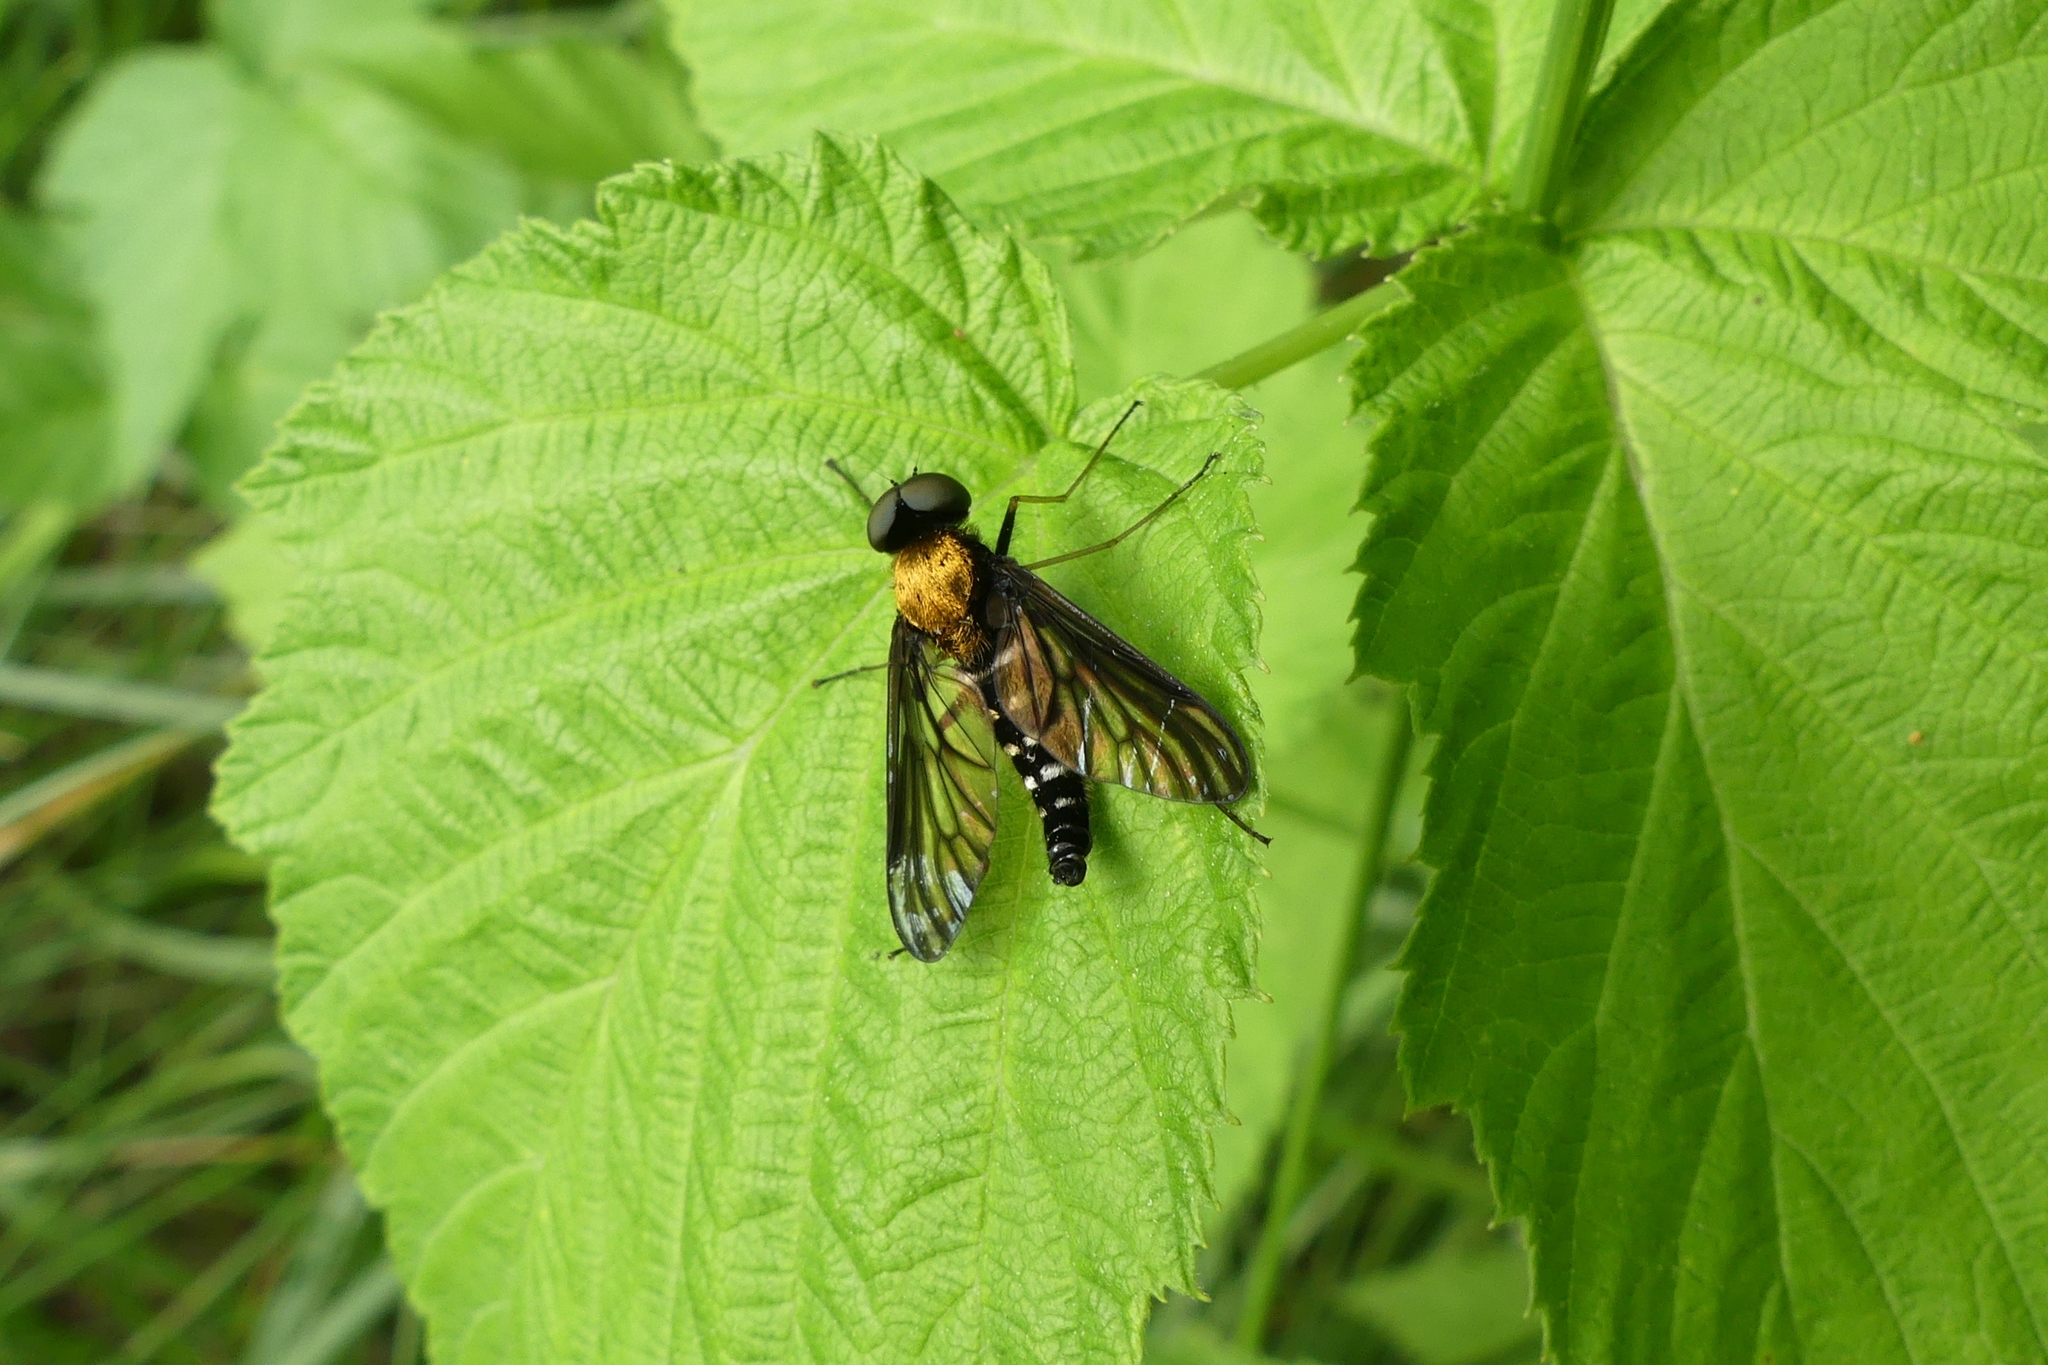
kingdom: Animalia
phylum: Arthropoda
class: Insecta
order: Diptera
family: Rhagionidae
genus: Chrysopilus
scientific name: Chrysopilus thoracicus
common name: Golden-backed snipe fly
